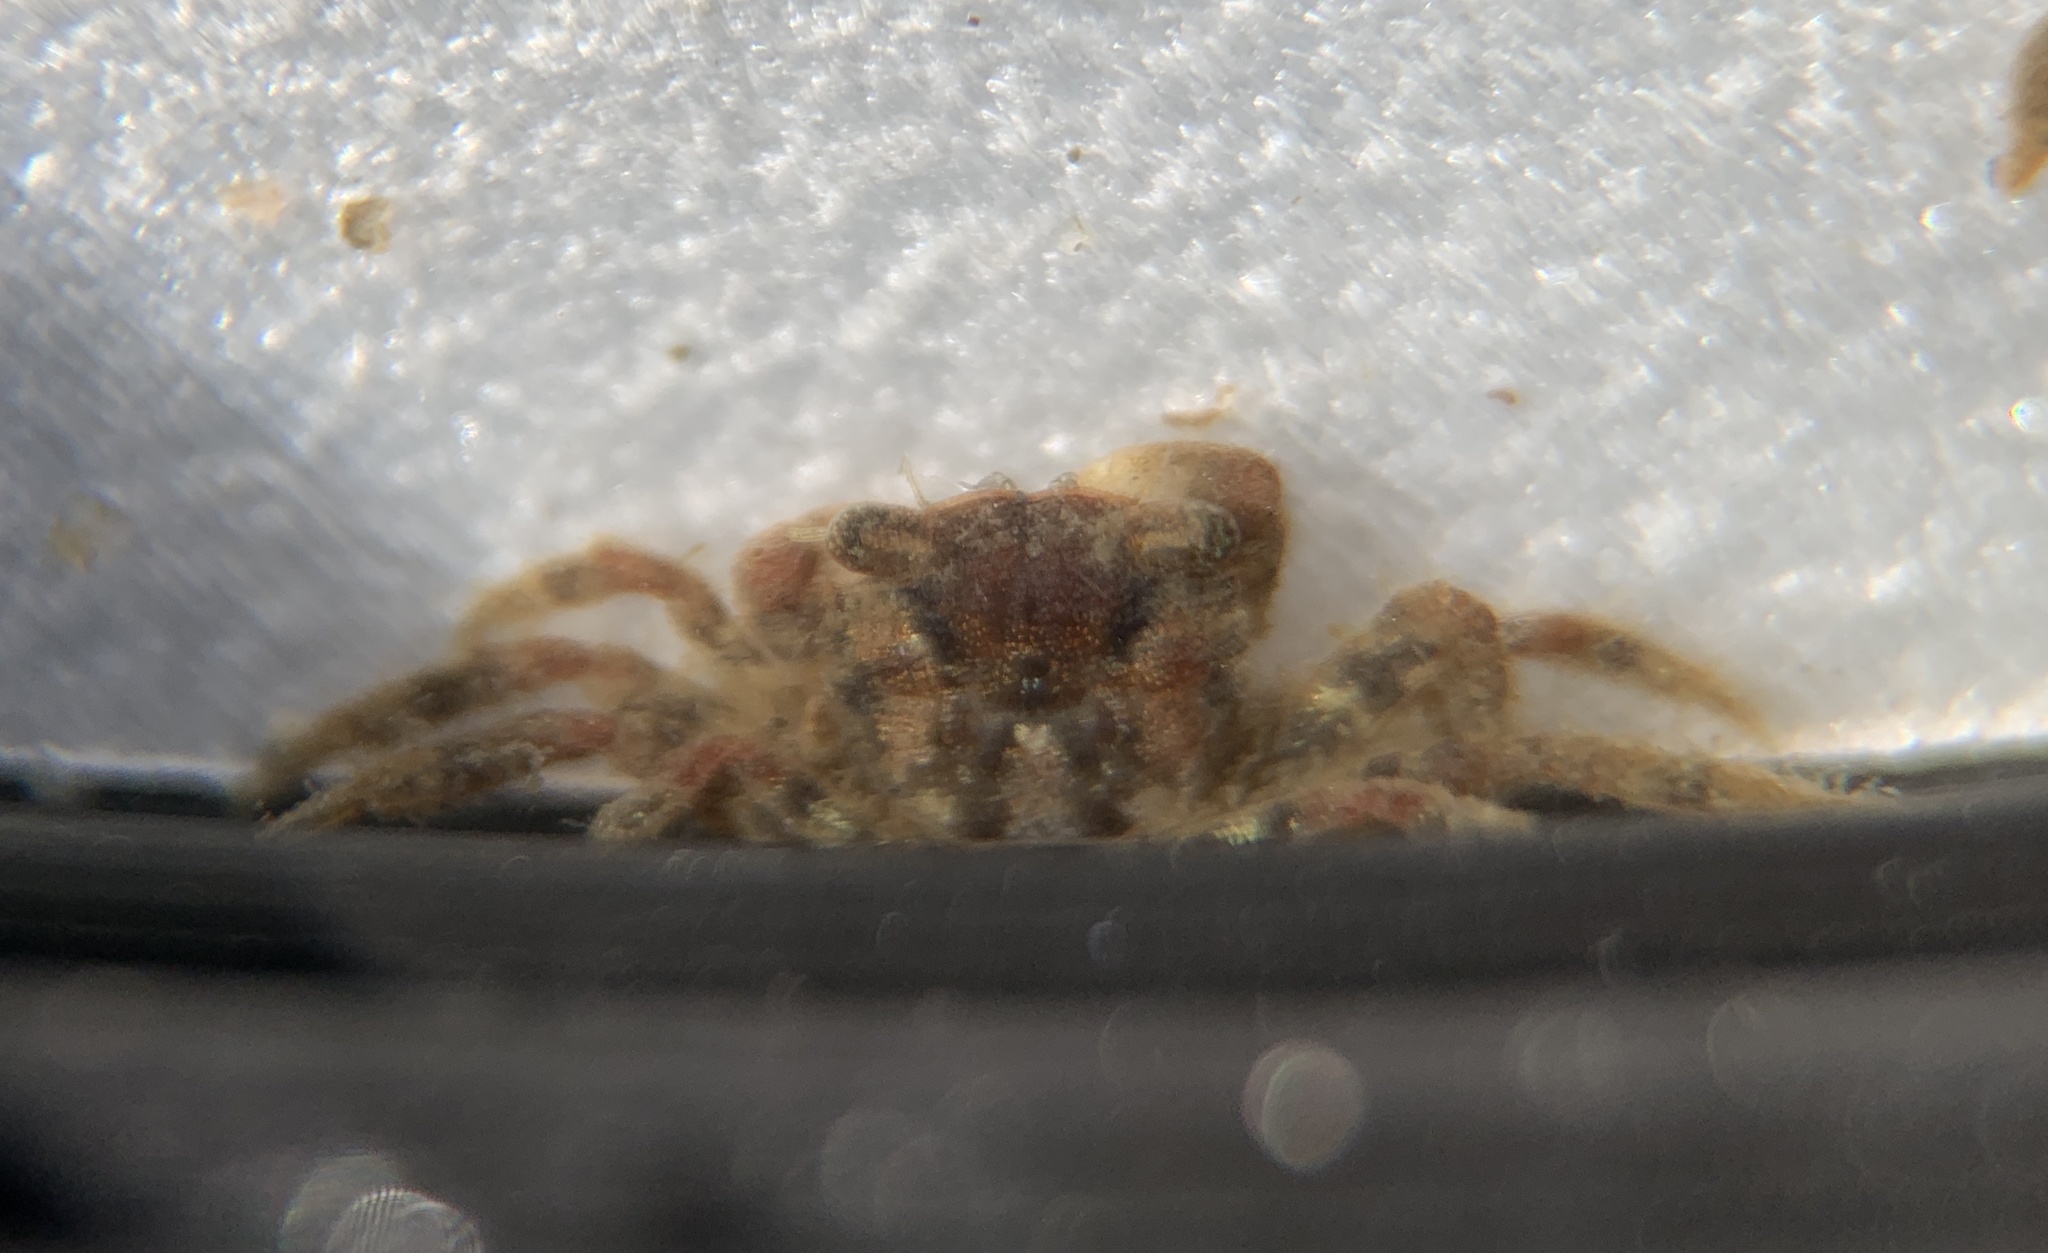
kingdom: Animalia
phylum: Arthropoda
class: Malacostraca
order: Decapoda
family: Varunidae
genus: Hemigrapsus
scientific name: Hemigrapsus sanguineus
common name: Asian shore crab
